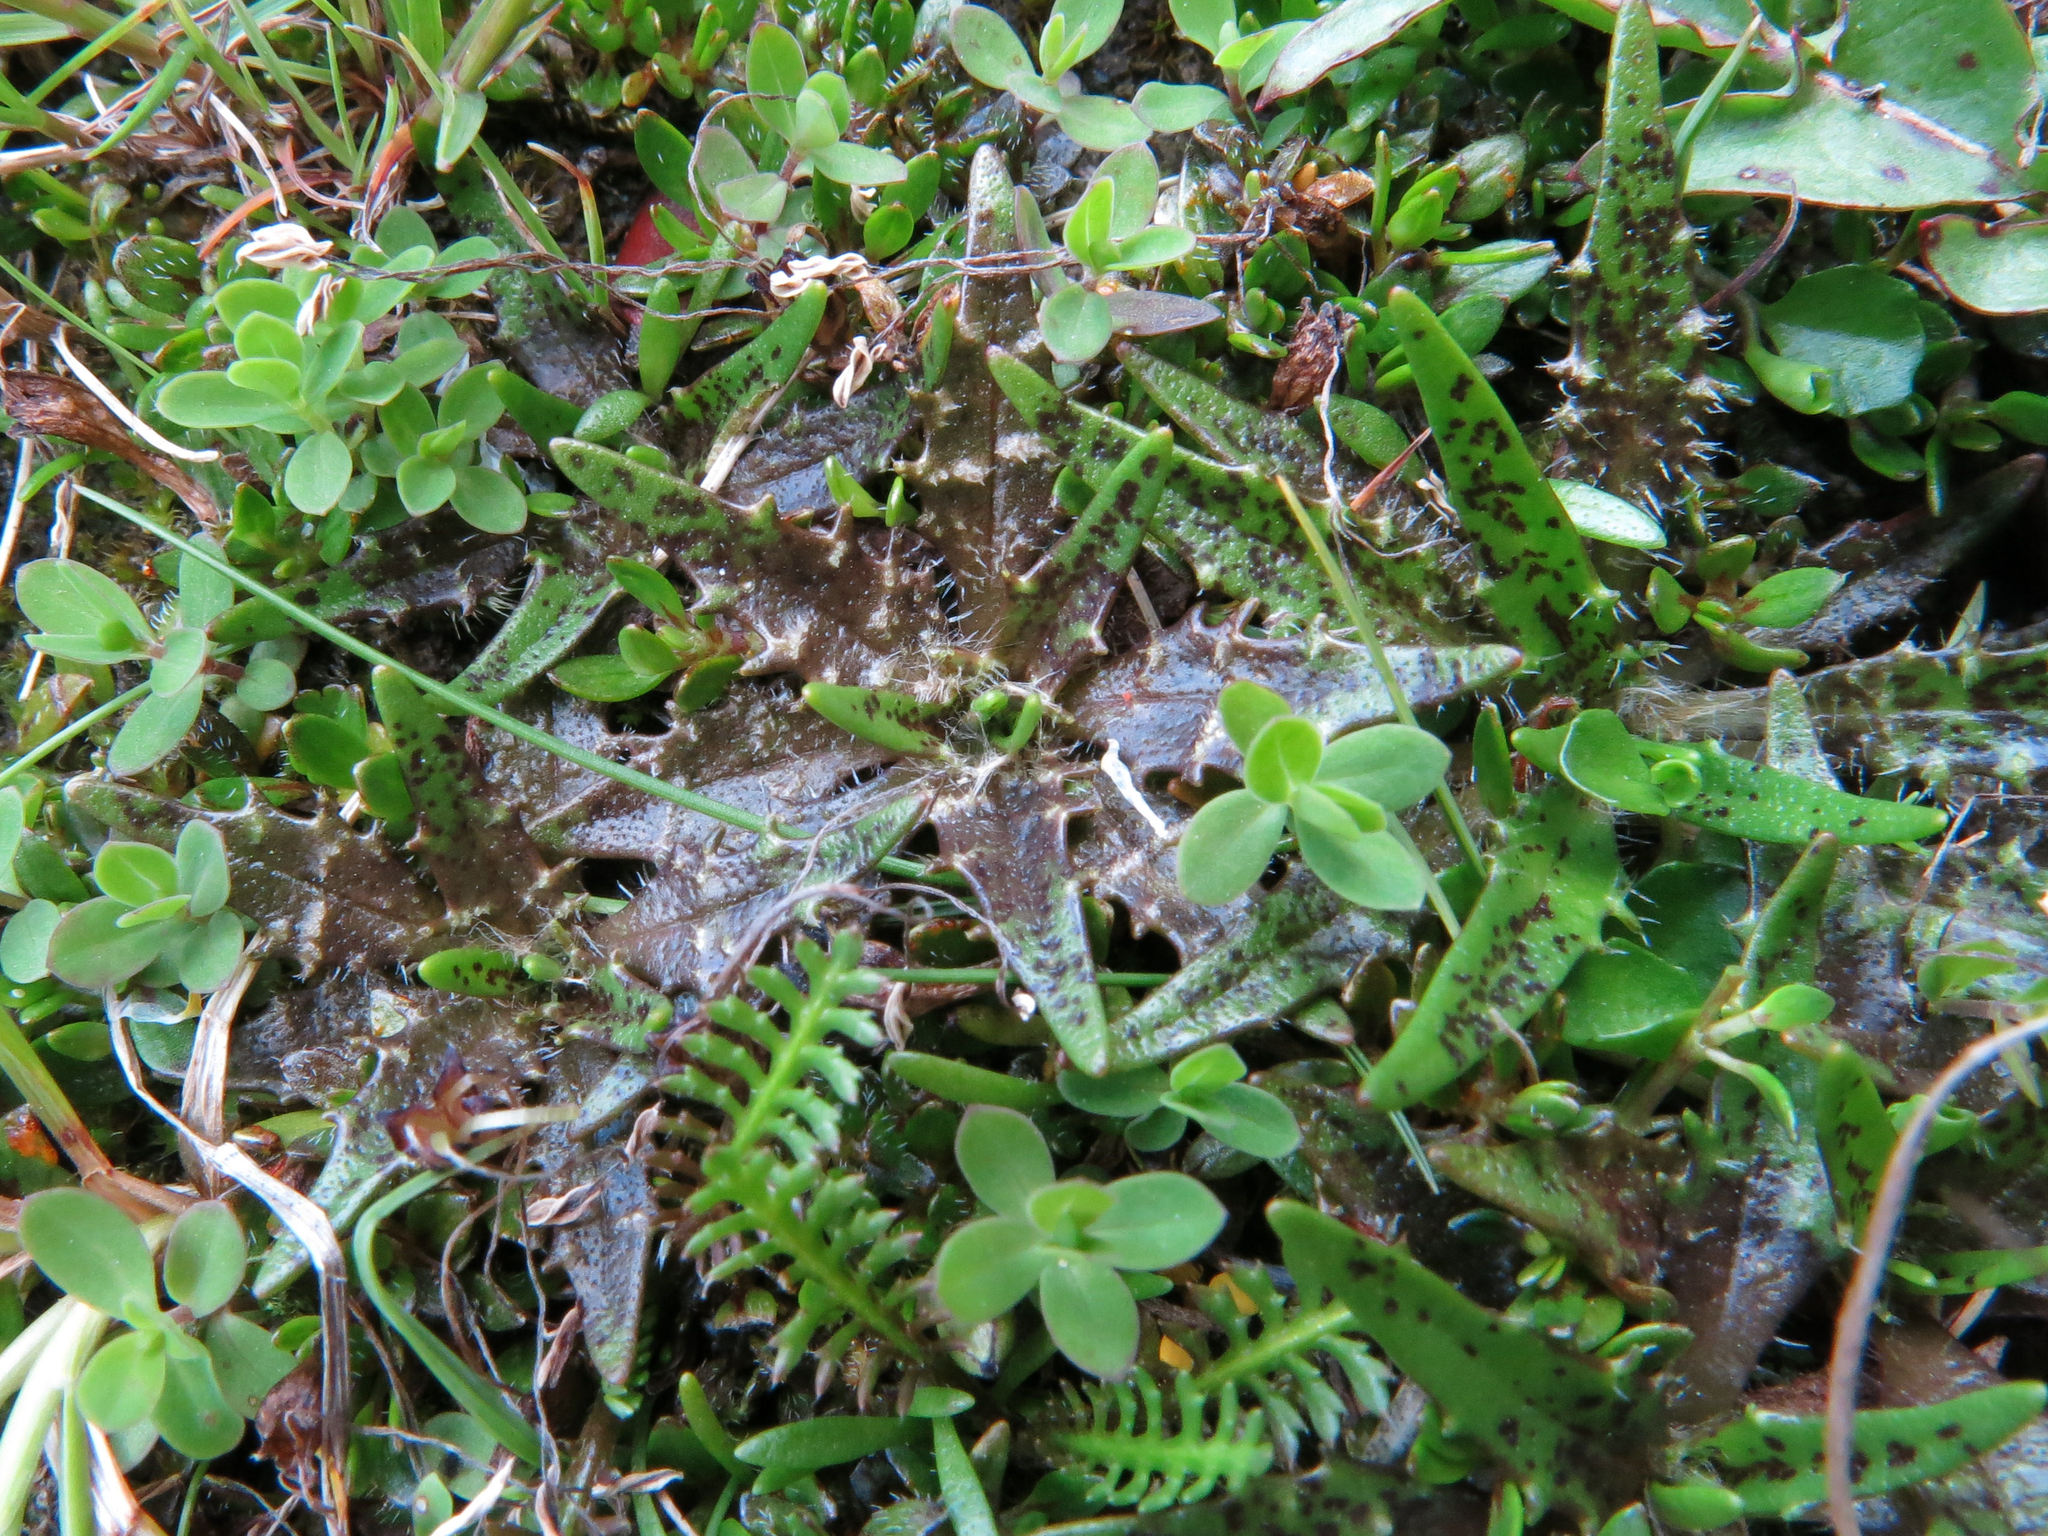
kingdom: Plantae
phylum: Tracheophyta
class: Magnoliopsida
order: Lamiales
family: Plantaginaceae
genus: Plantago
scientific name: Plantago triandra
